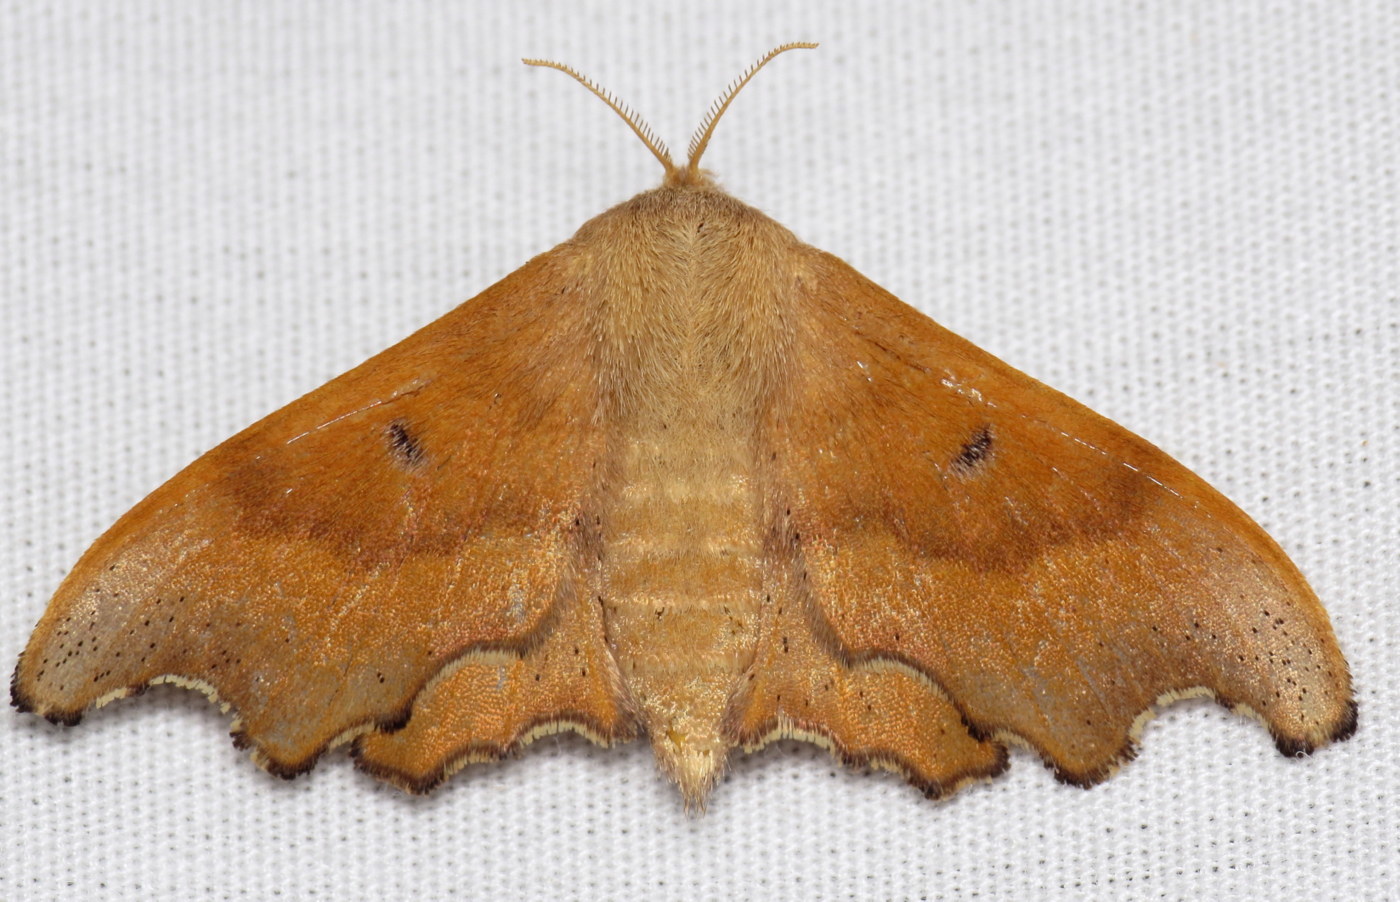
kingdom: Animalia
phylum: Arthropoda
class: Insecta
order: Lepidoptera
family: Mimallonidae
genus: Lacosoma
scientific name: Lacosoma chiridota
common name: Scalloped sack-bearer moth
